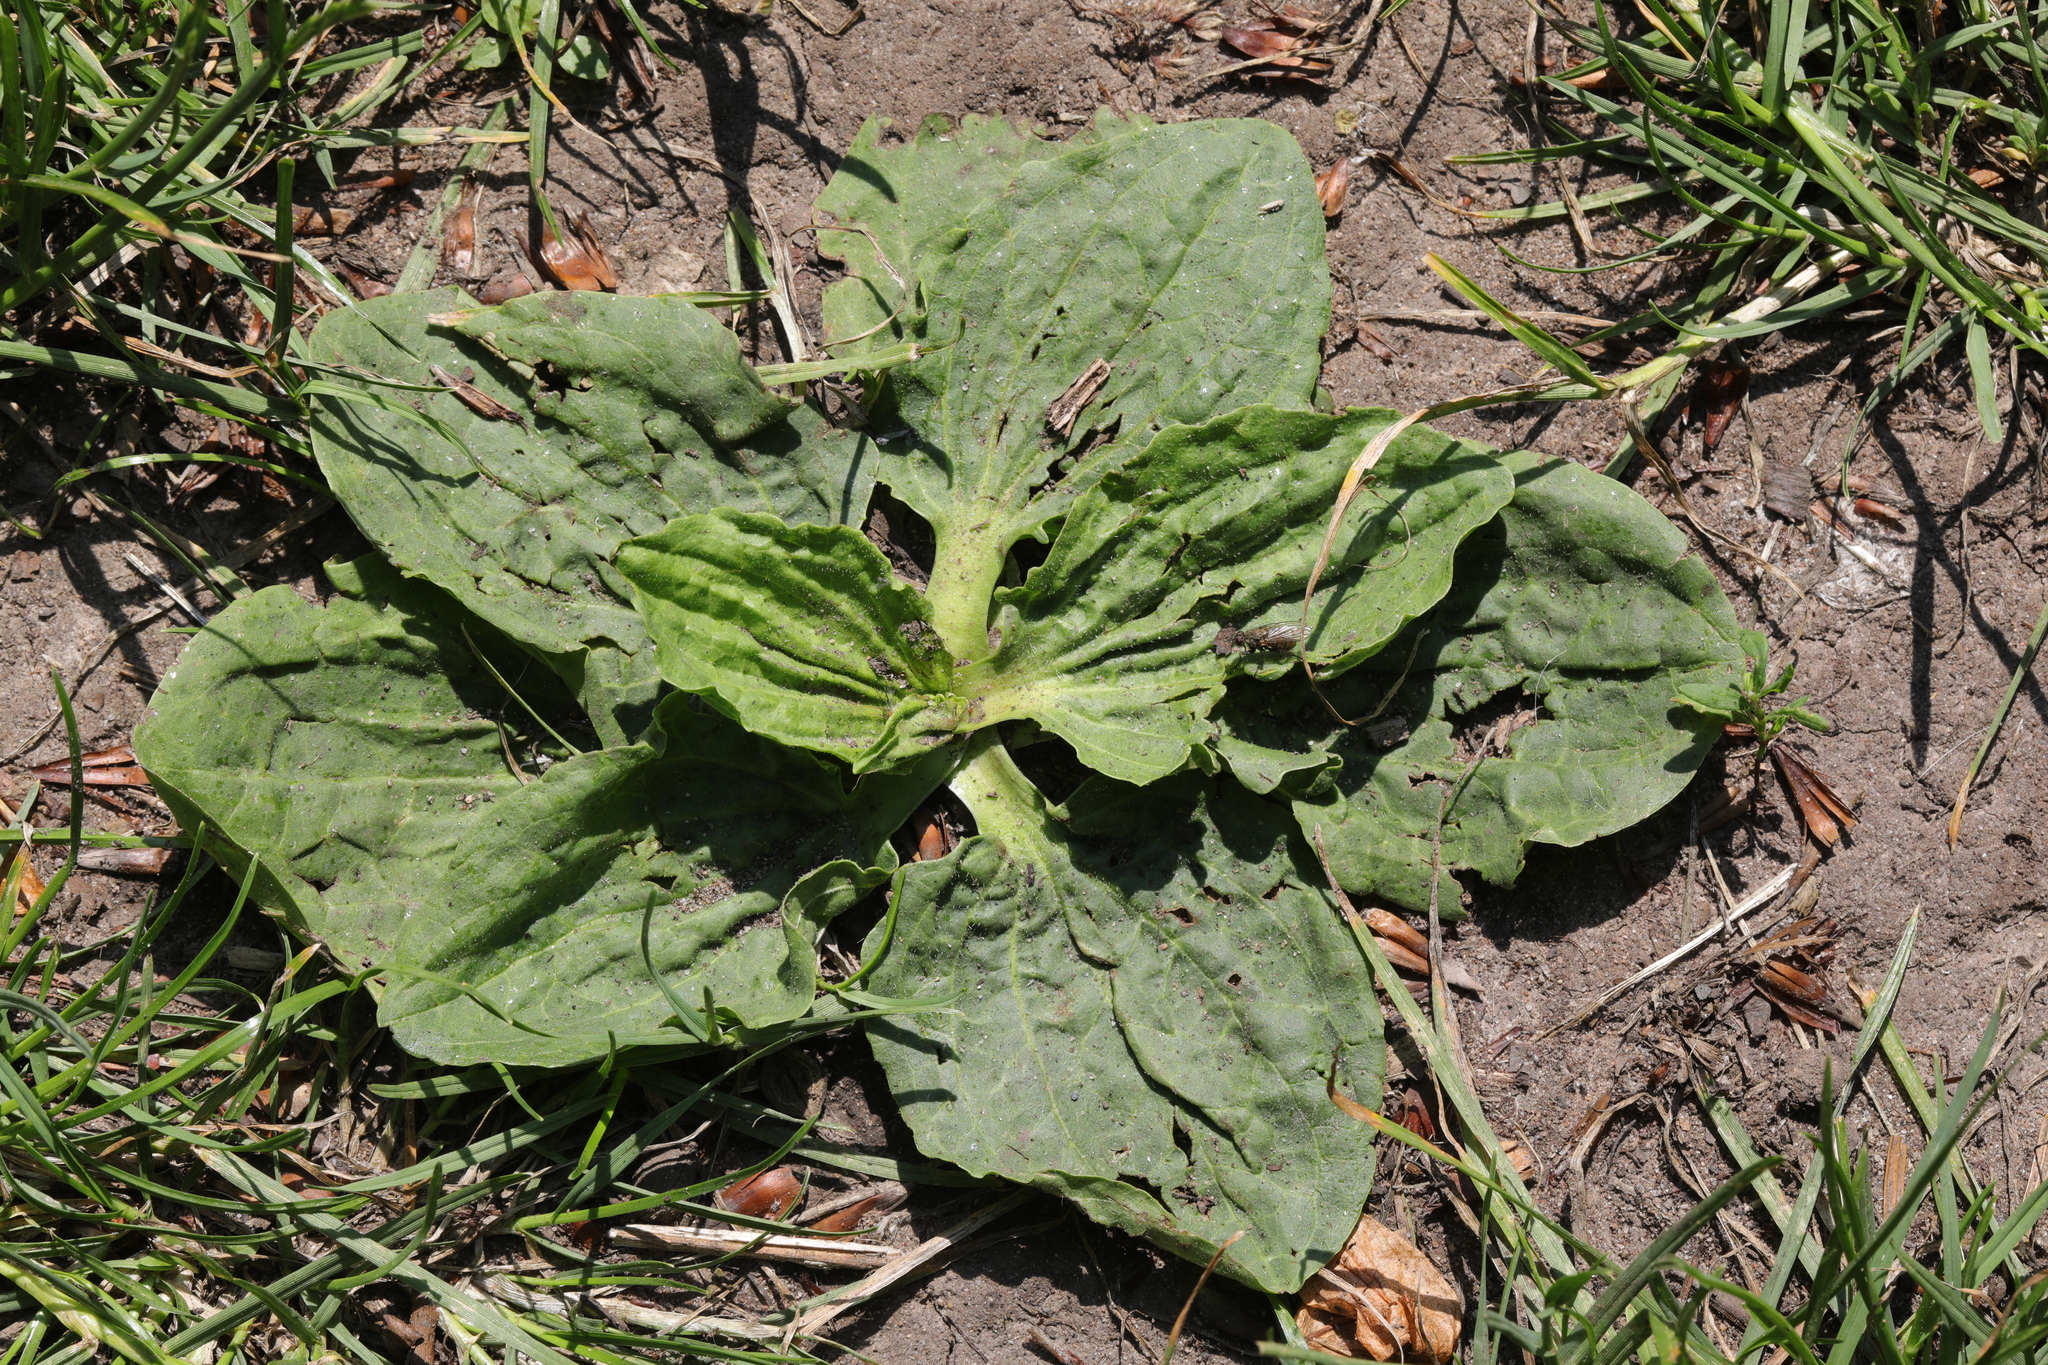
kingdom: Plantae
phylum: Tracheophyta
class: Magnoliopsida
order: Lamiales
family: Plantaginaceae
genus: Plantago
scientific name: Plantago major
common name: Common plantain
